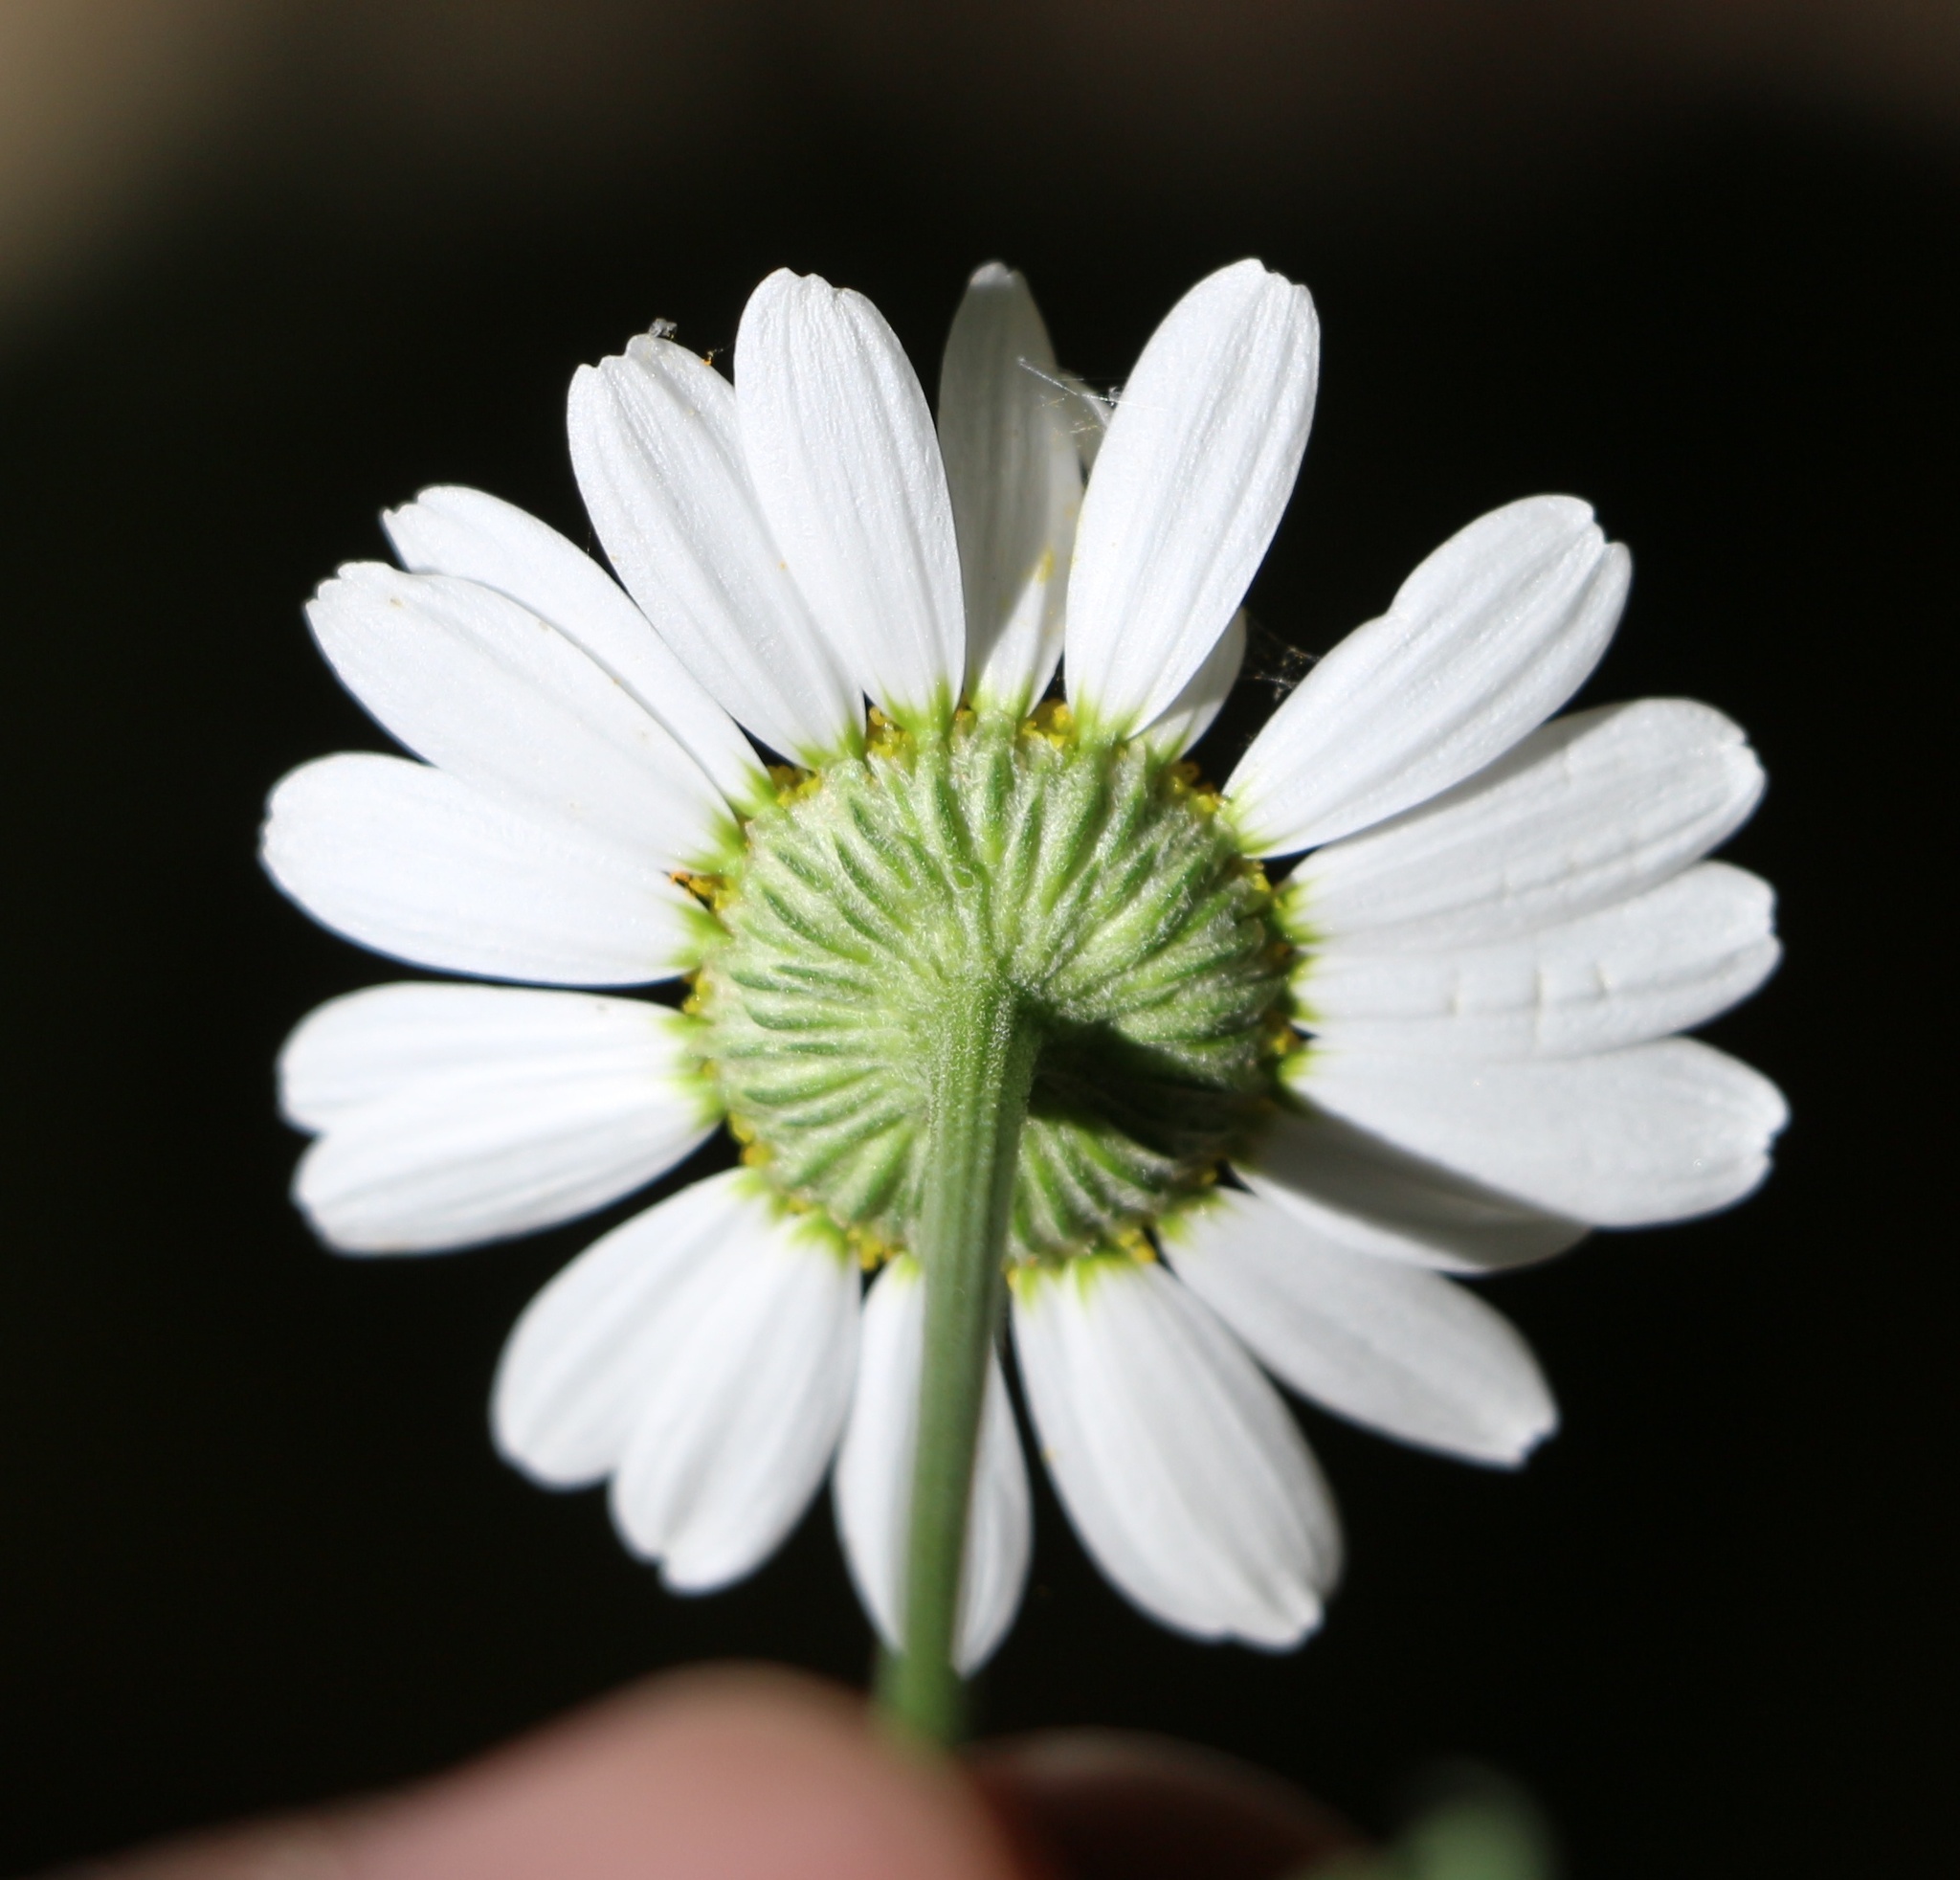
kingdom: Plantae
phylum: Tracheophyta
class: Magnoliopsida
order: Asterales
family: Asteraceae
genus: Tanacetum
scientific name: Tanacetum partheniifolium
